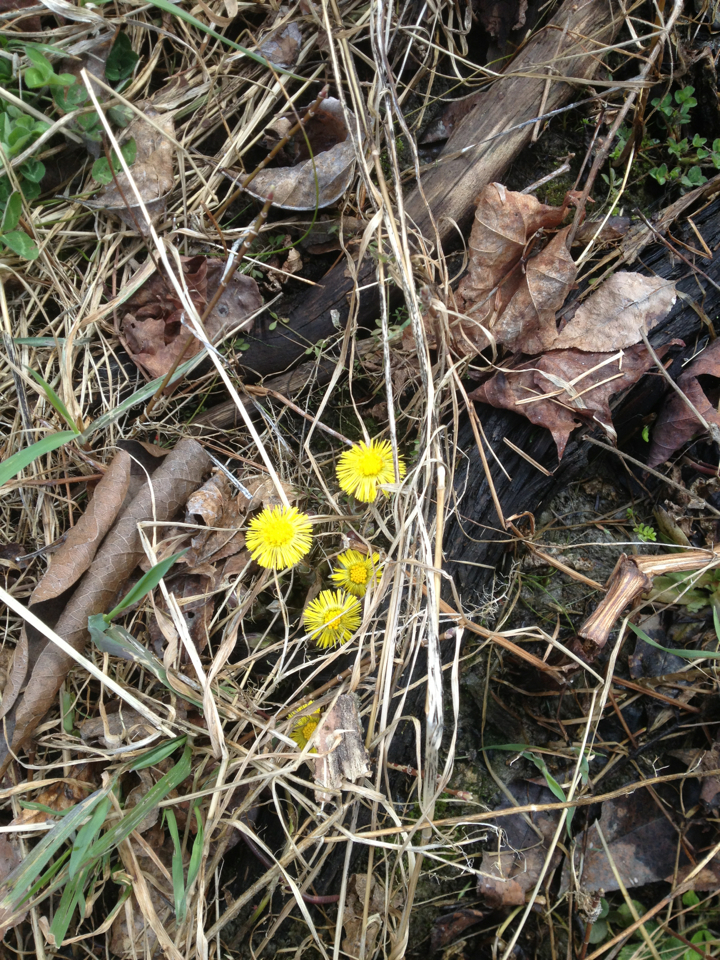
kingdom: Plantae
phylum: Tracheophyta
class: Magnoliopsida
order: Asterales
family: Asteraceae
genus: Tussilago
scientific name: Tussilago farfara
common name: Coltsfoot
